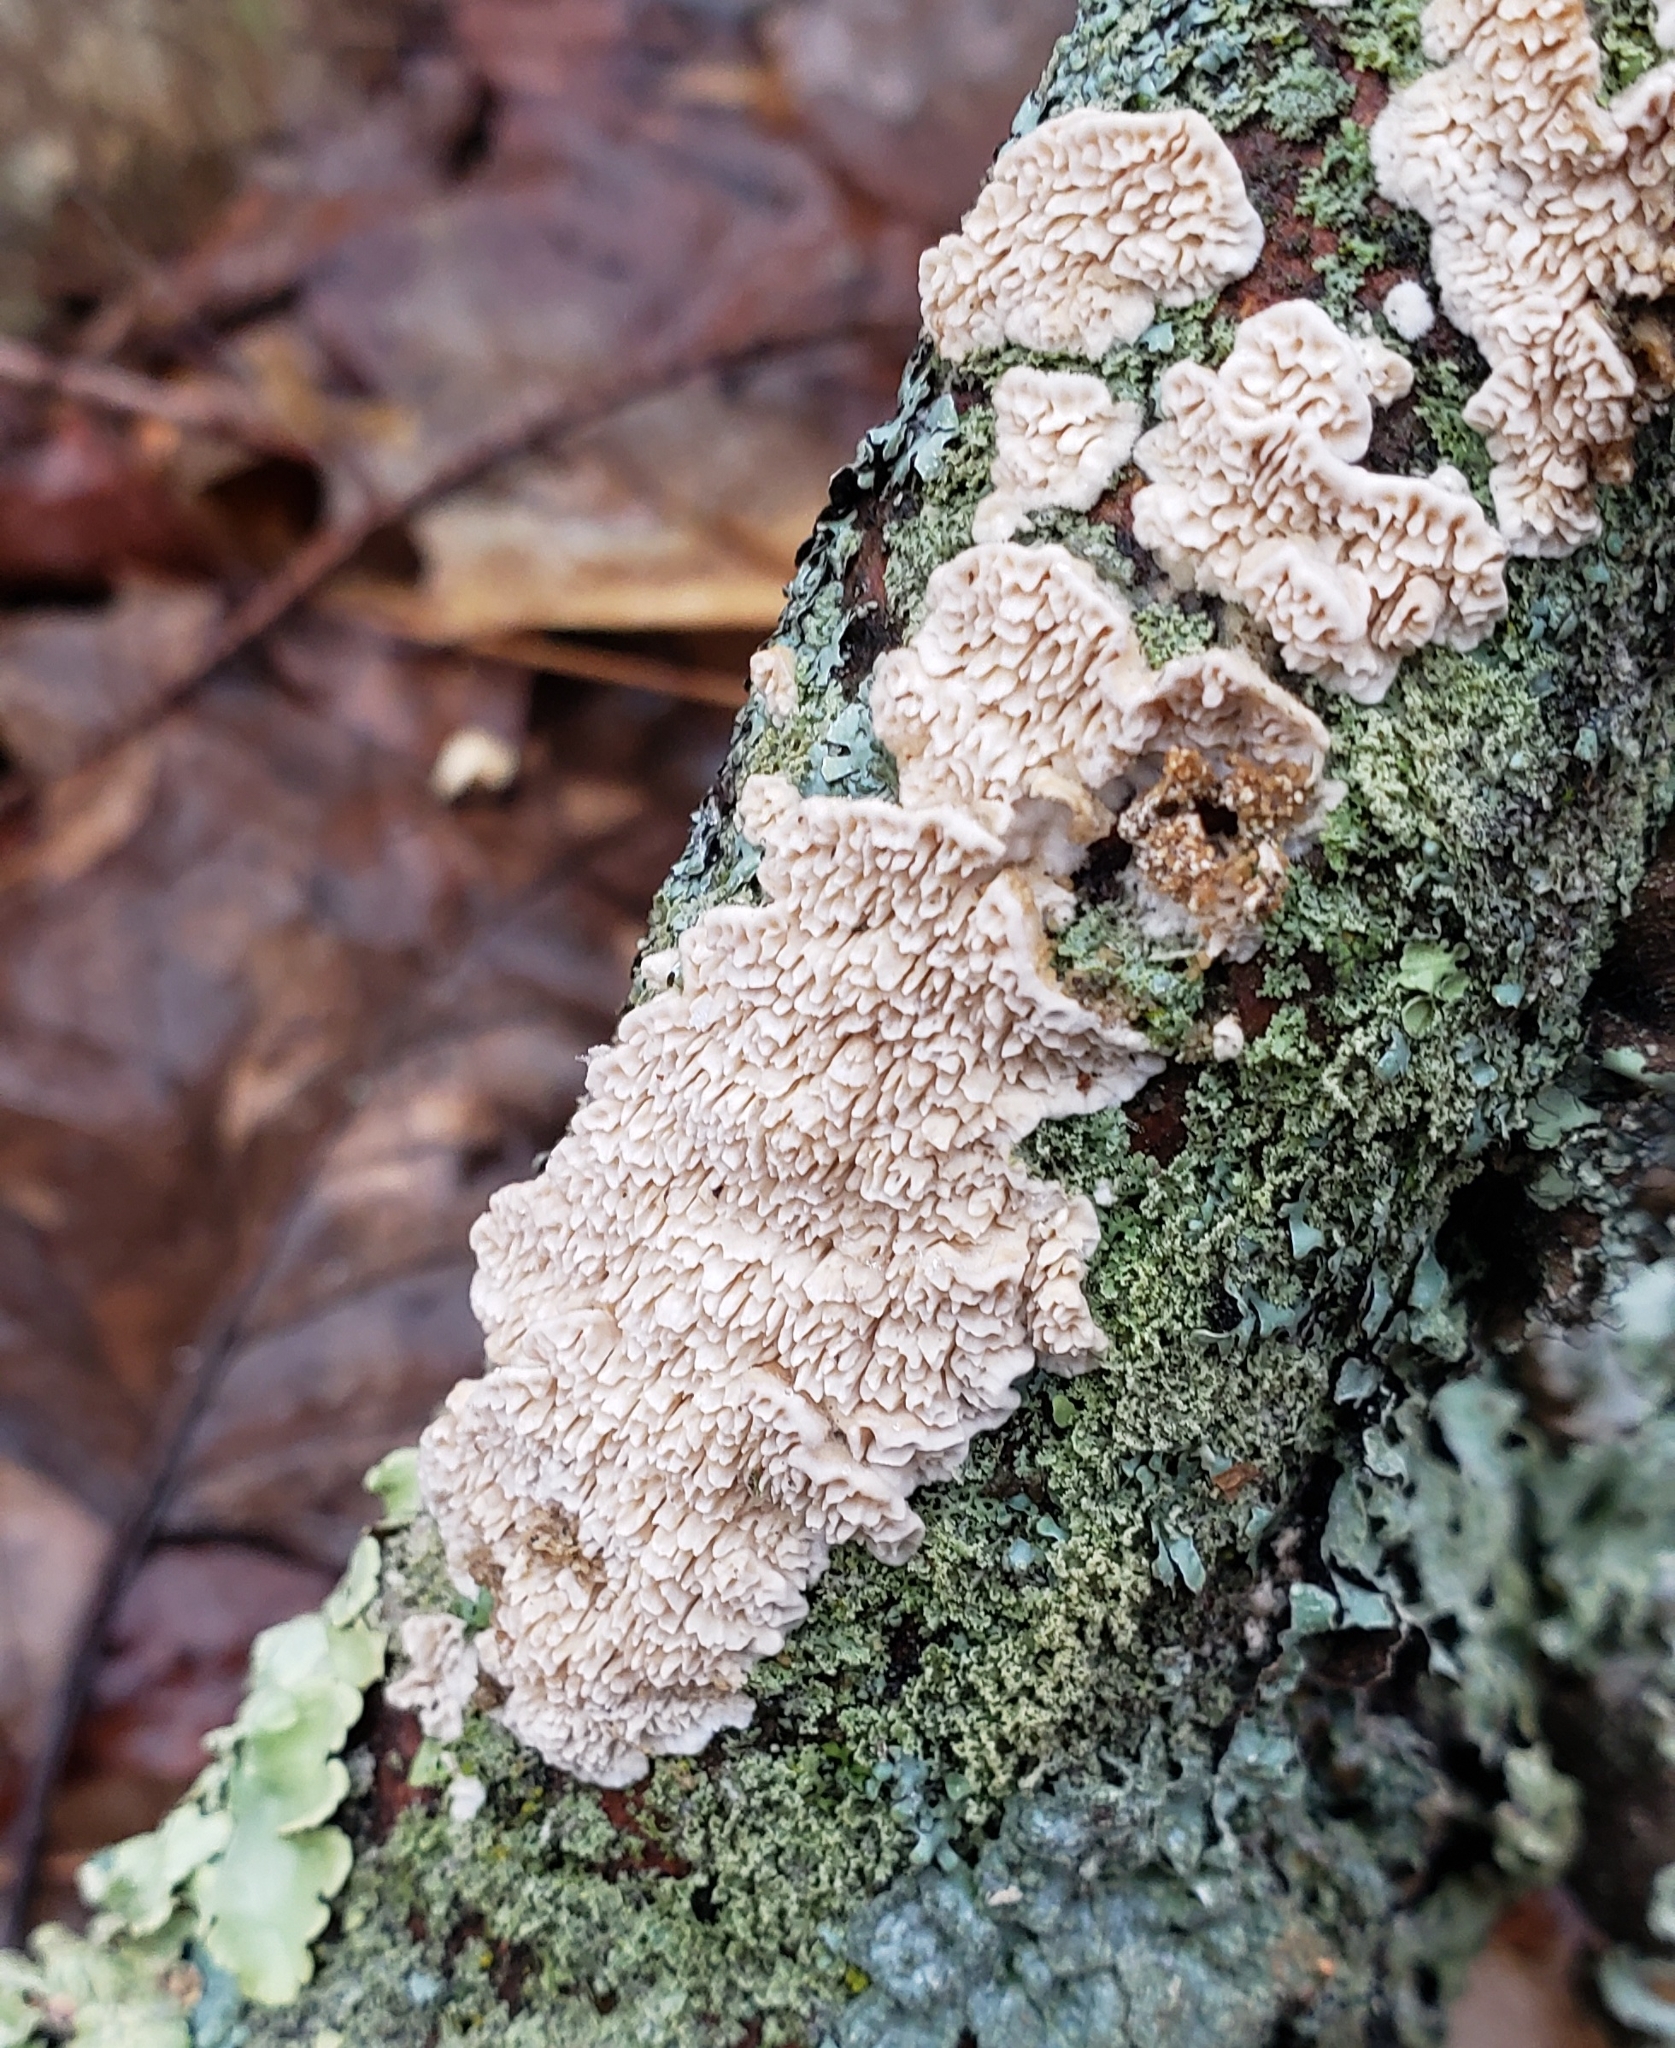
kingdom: Fungi
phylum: Basidiomycota
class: Agaricomycetes
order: Polyporales
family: Irpicaceae
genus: Irpex
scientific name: Irpex lacteus
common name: Milk-white toothed polypore
